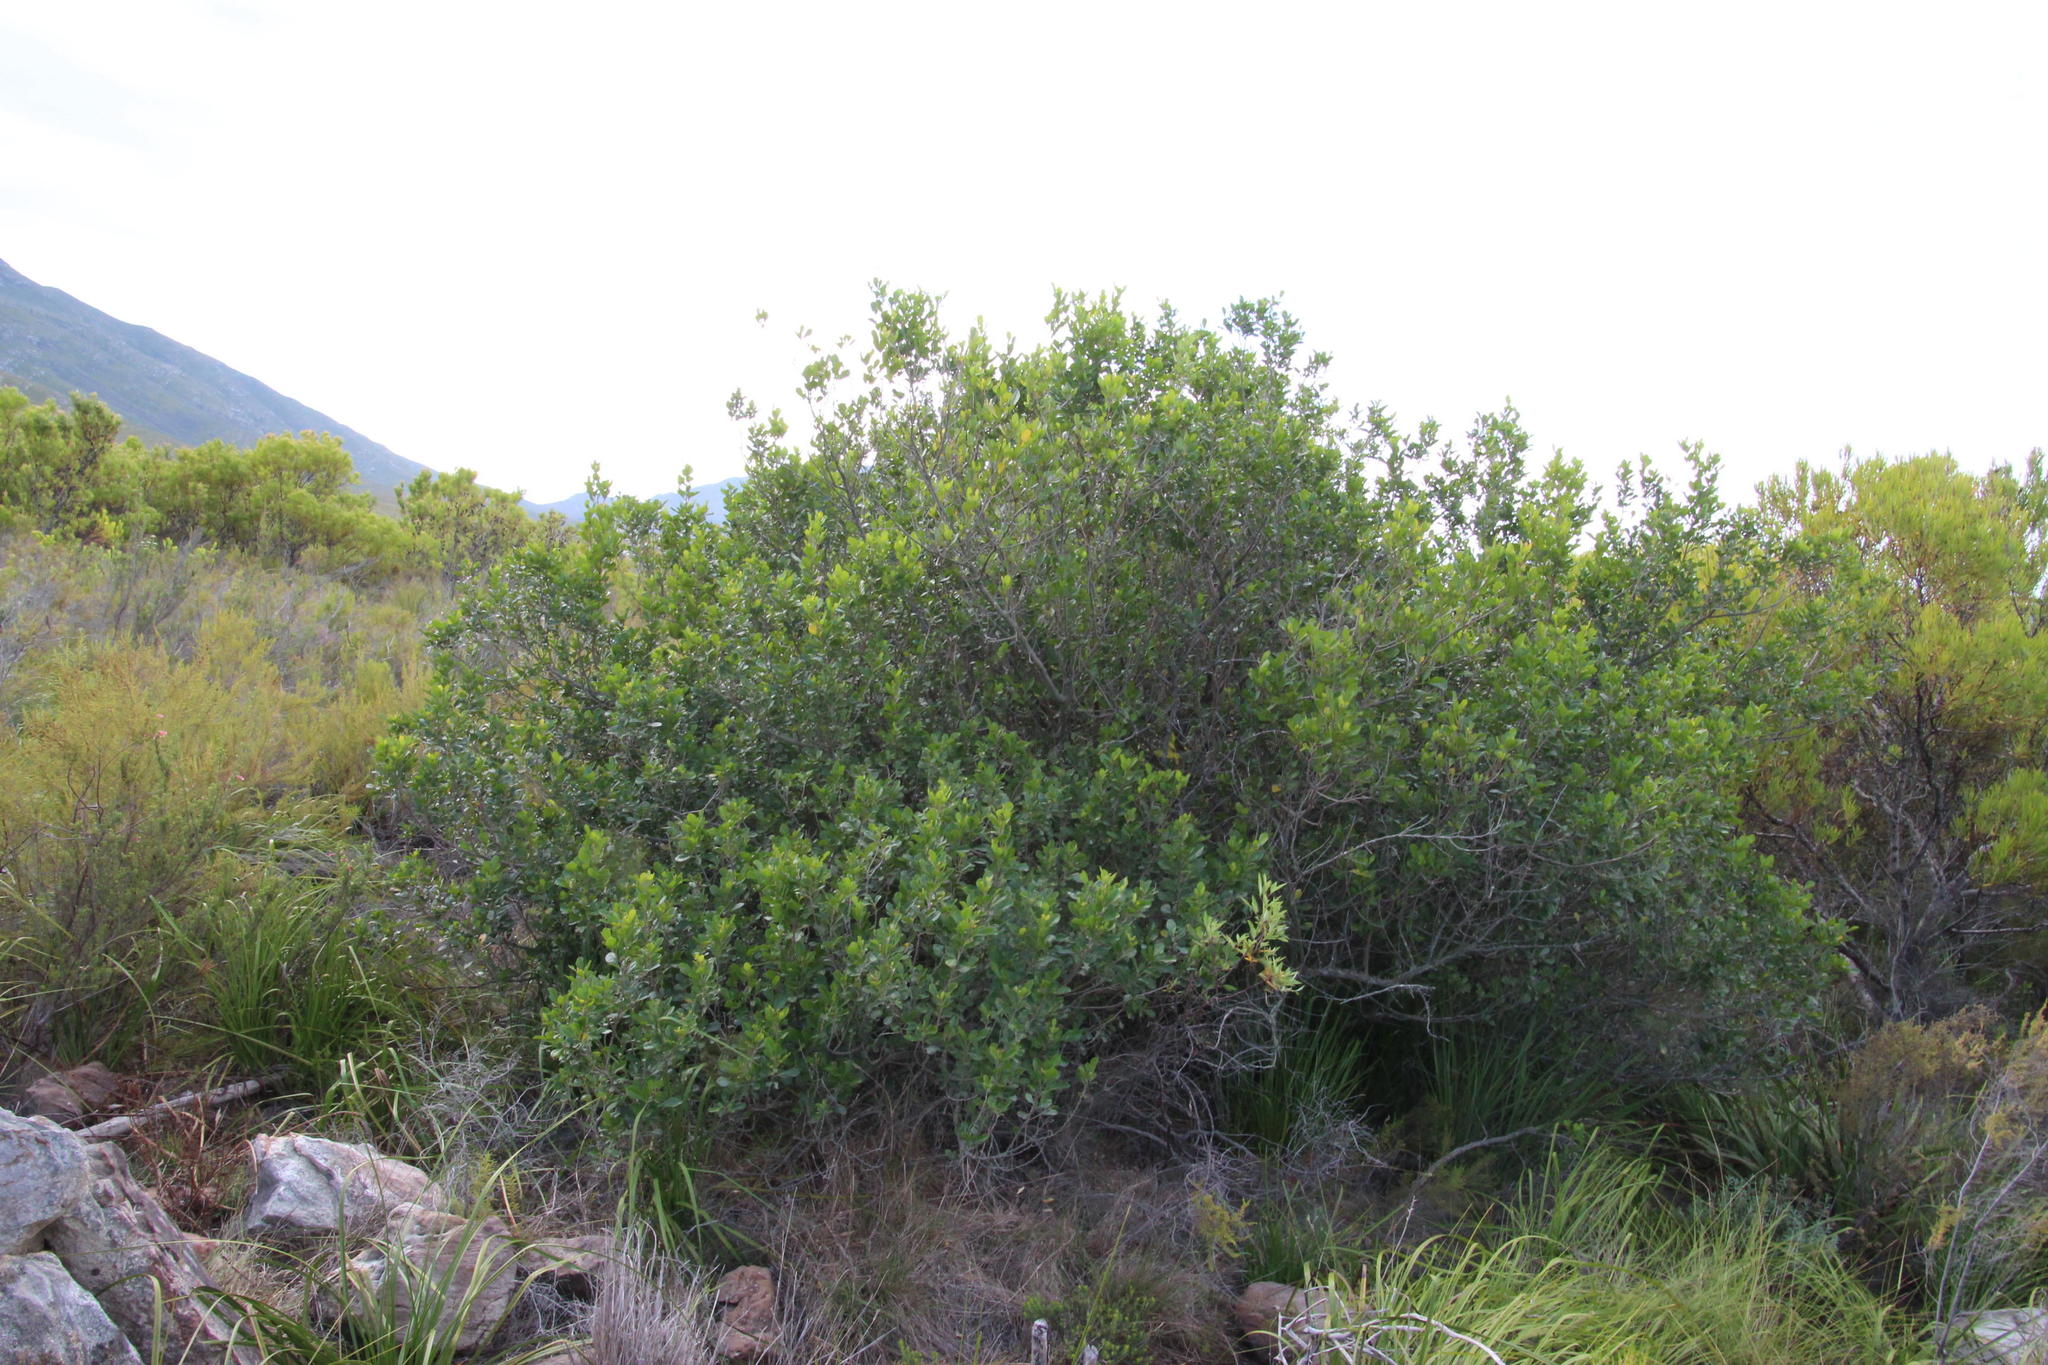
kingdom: Plantae
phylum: Tracheophyta
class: Magnoliopsida
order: Sapindales
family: Anacardiaceae
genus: Searsia
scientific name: Searsia lucida
